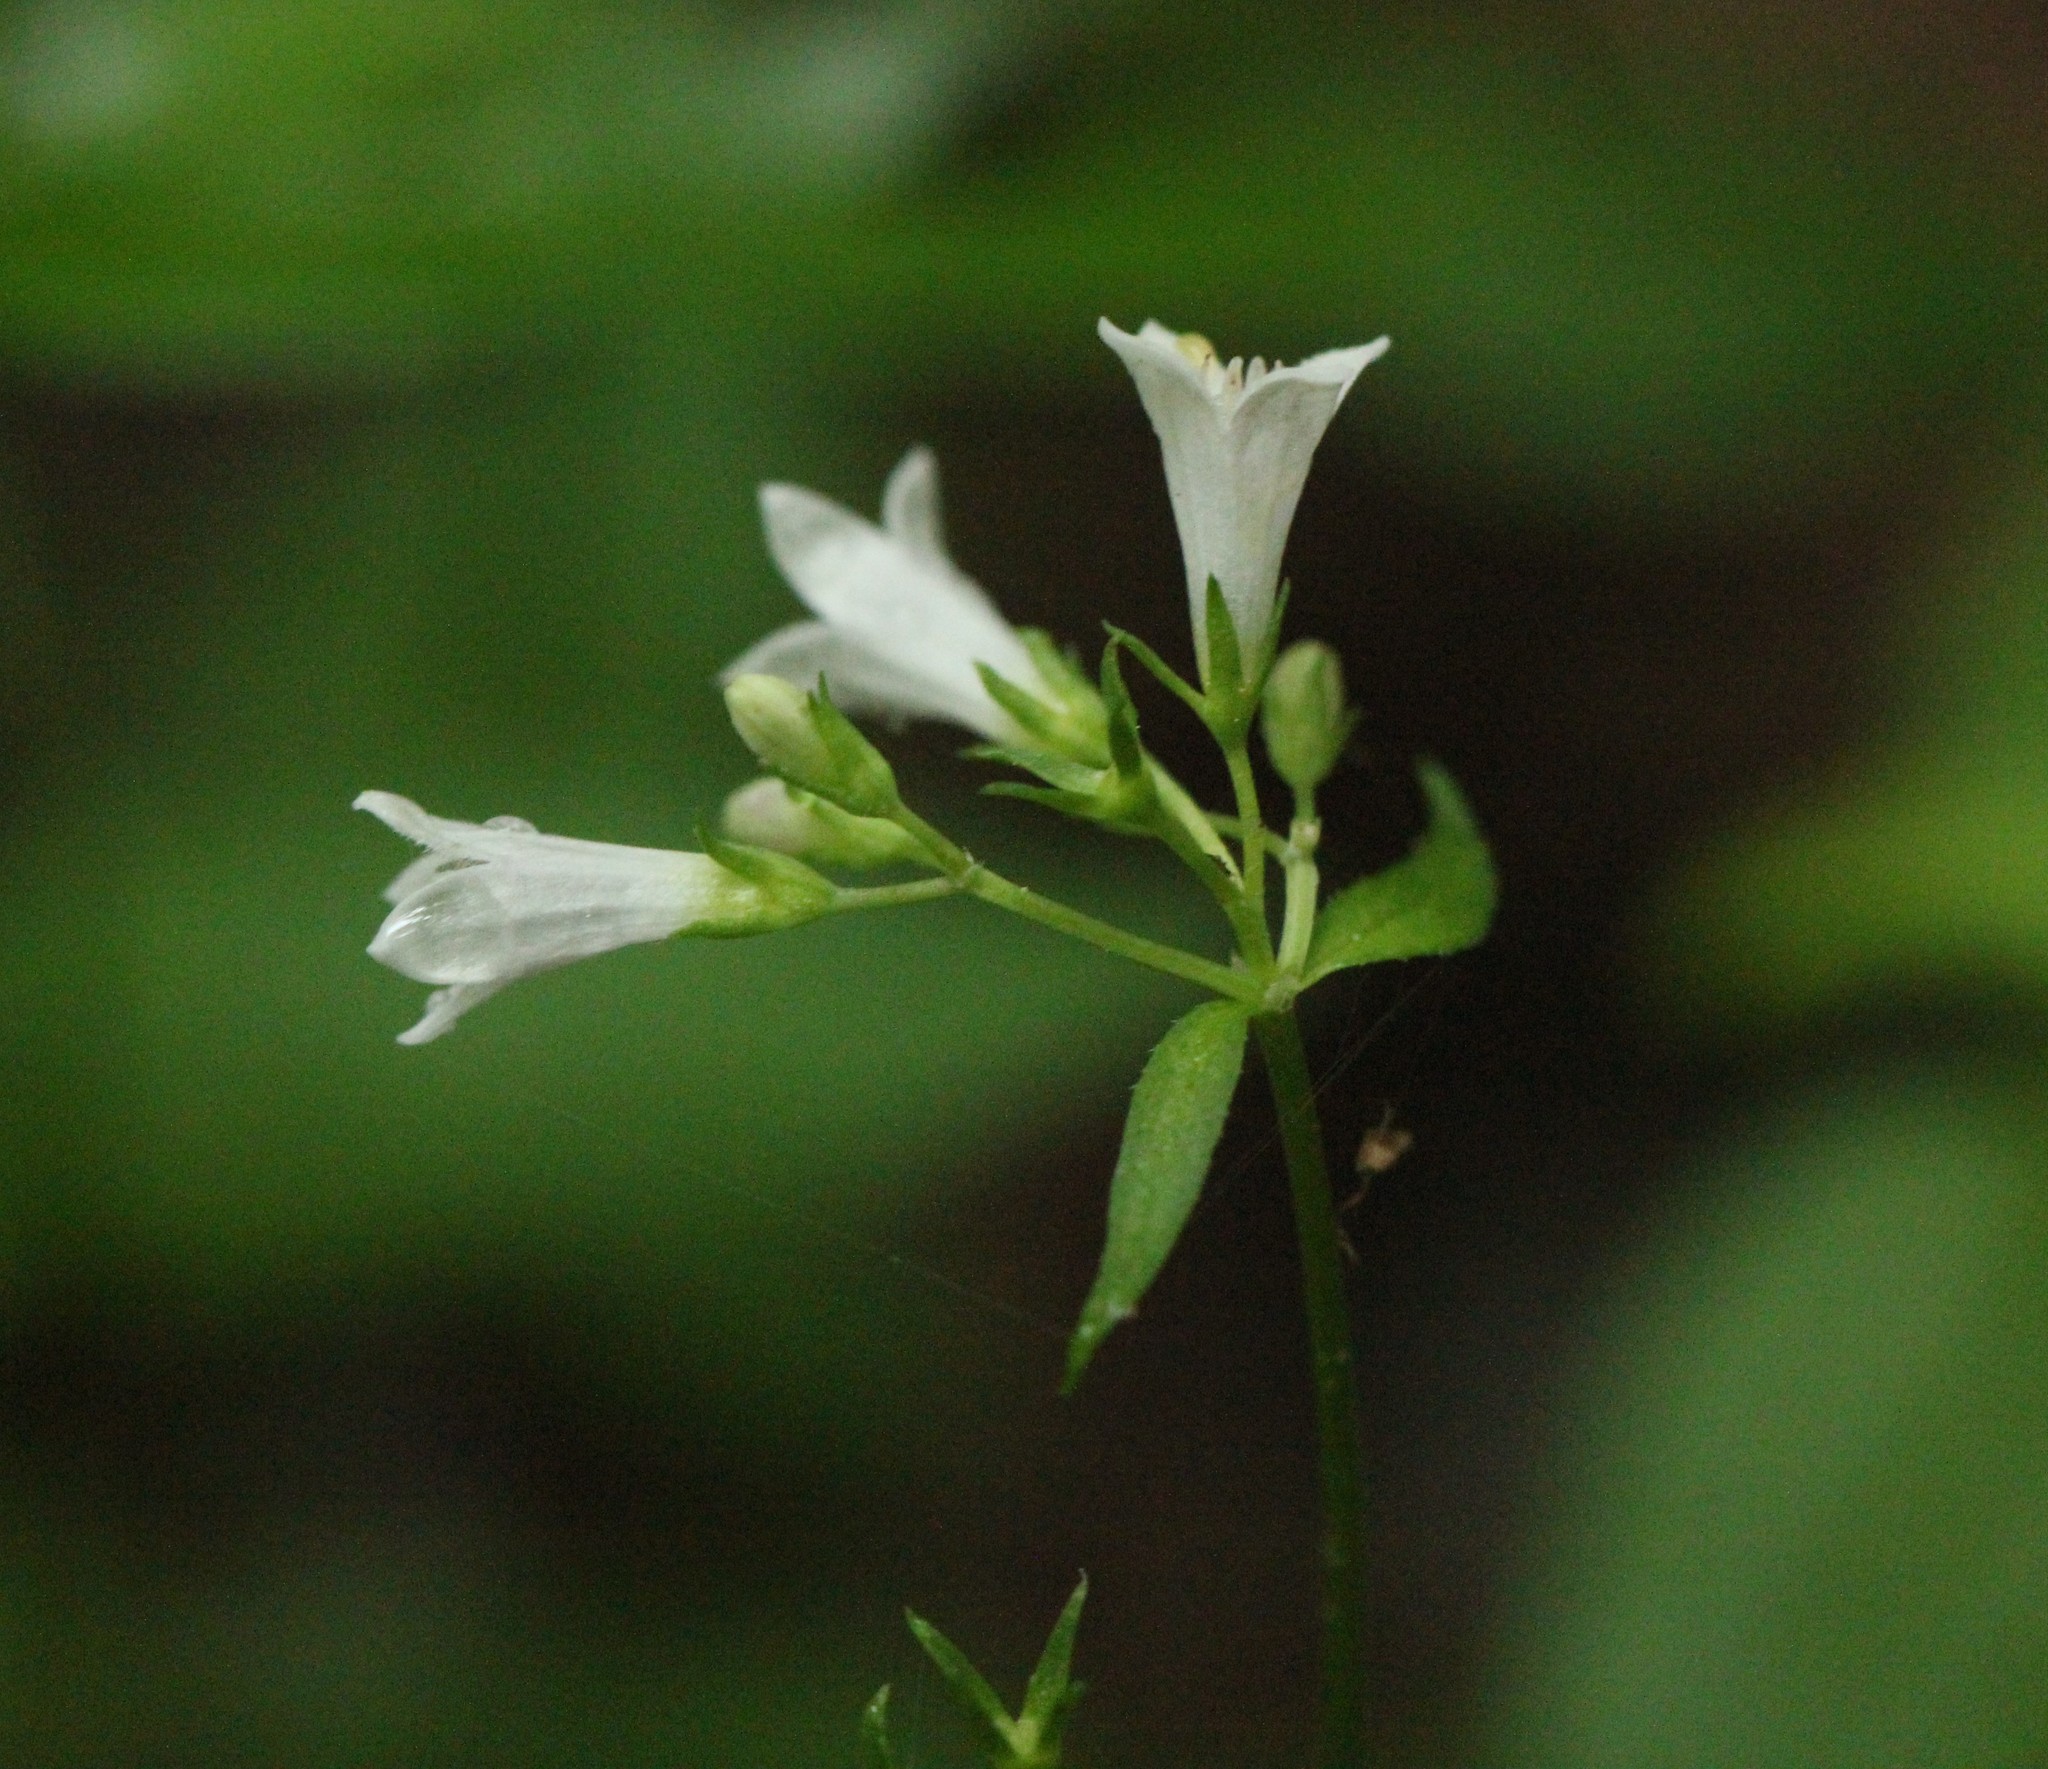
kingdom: Plantae
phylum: Tracheophyta
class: Magnoliopsida
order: Gentianales
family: Rubiaceae
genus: Houstonia
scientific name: Houstonia purpurea
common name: Summer bluet
